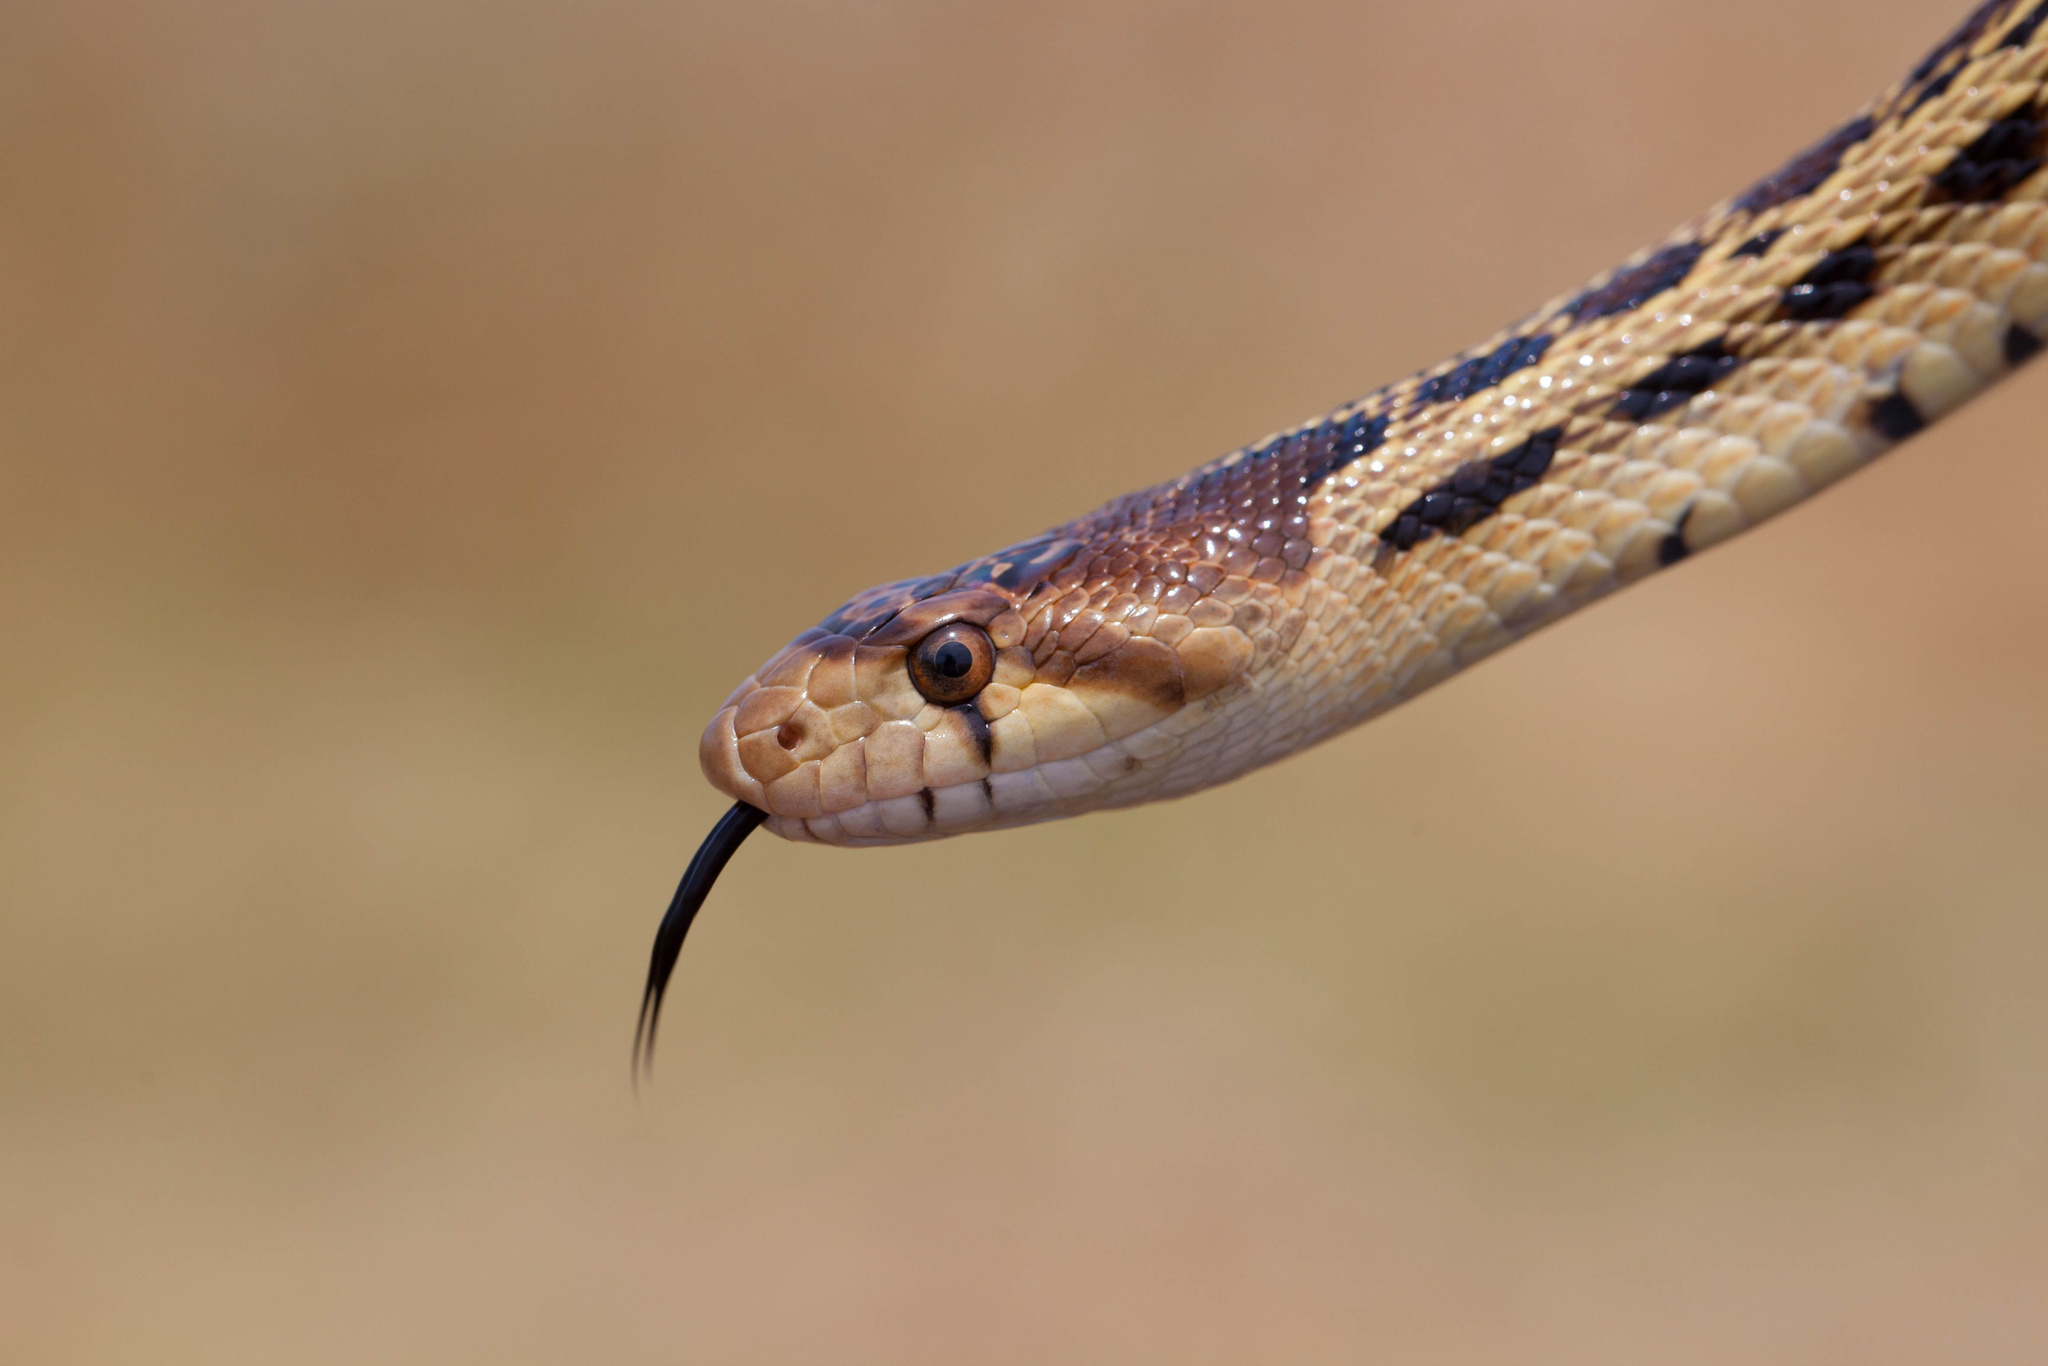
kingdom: Animalia
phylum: Chordata
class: Squamata
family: Colubridae
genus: Pituophis
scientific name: Pituophis catenifer
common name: Gopher snake
